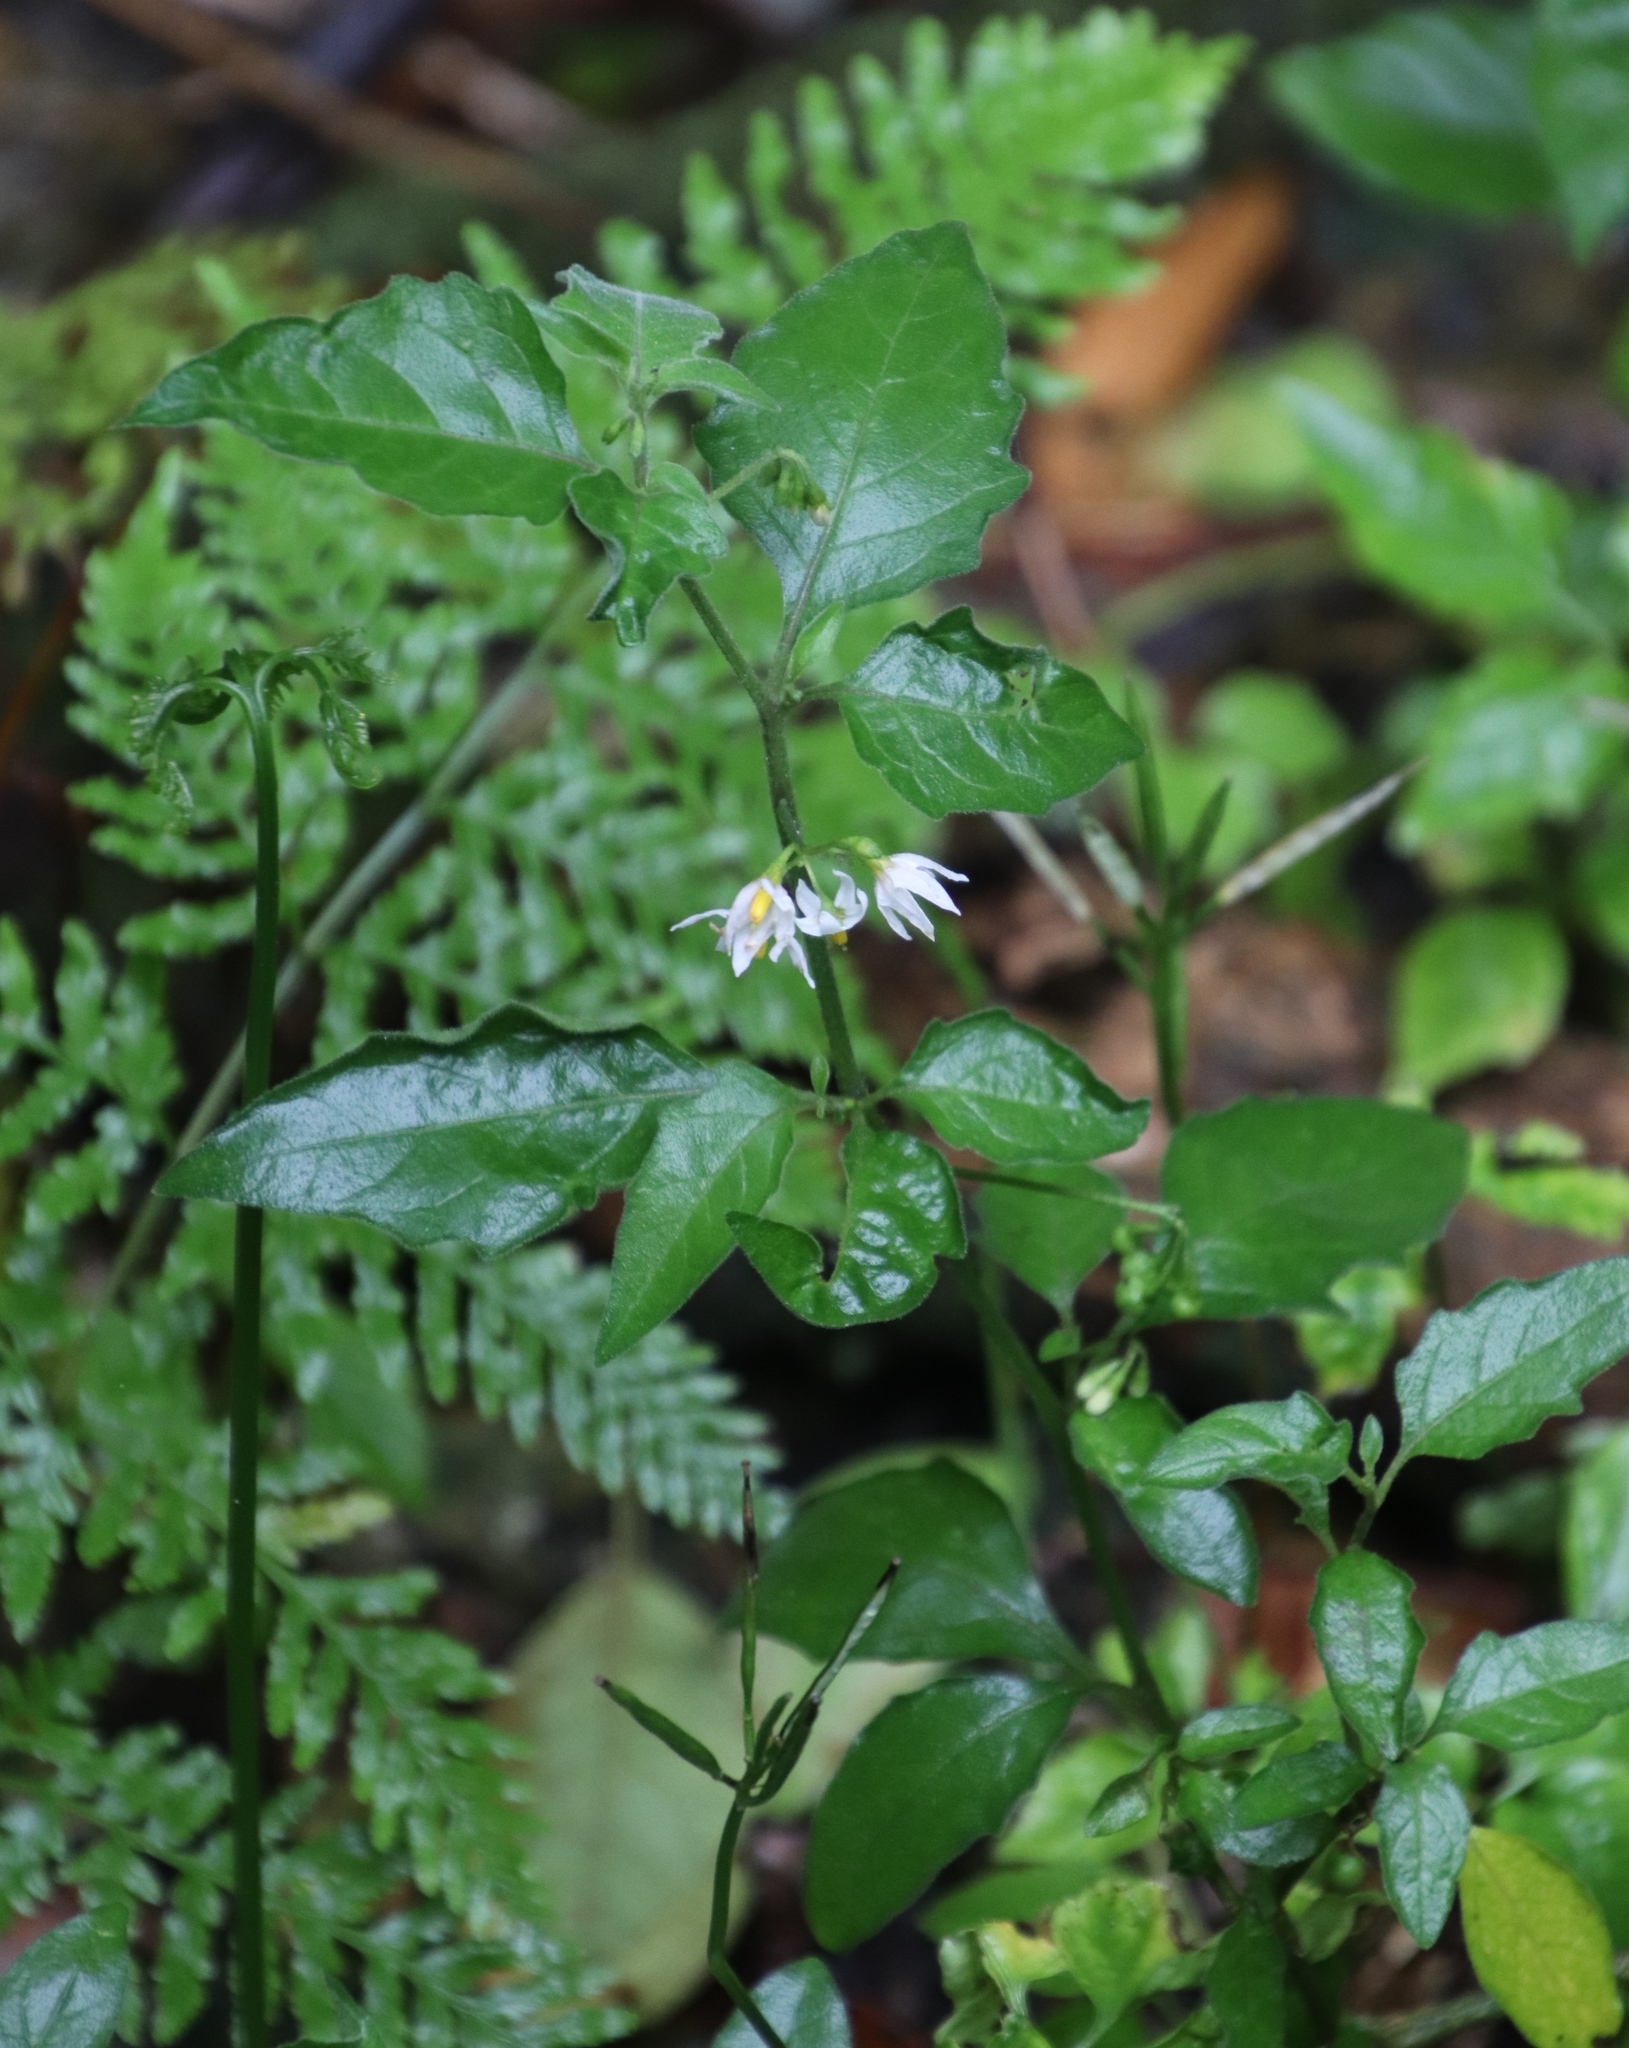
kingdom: Plantae
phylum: Tracheophyta
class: Magnoliopsida
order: Solanales
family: Solanaceae
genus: Solanum
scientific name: Solanum retroflexum
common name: Wonderberry
